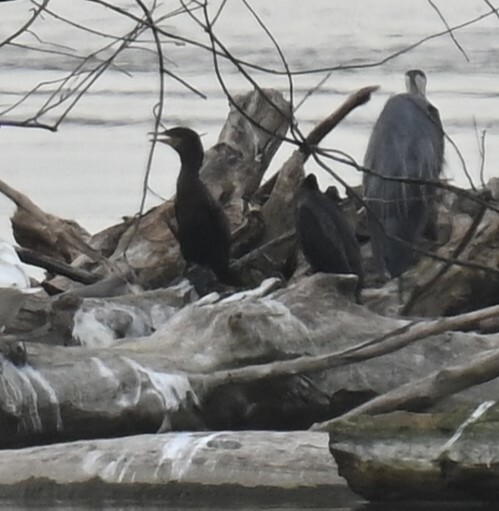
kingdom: Animalia
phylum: Chordata
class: Aves
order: Suliformes
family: Phalacrocoracidae
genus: Phalacrocorax
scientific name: Phalacrocorax auritus
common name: Double-crested cormorant
